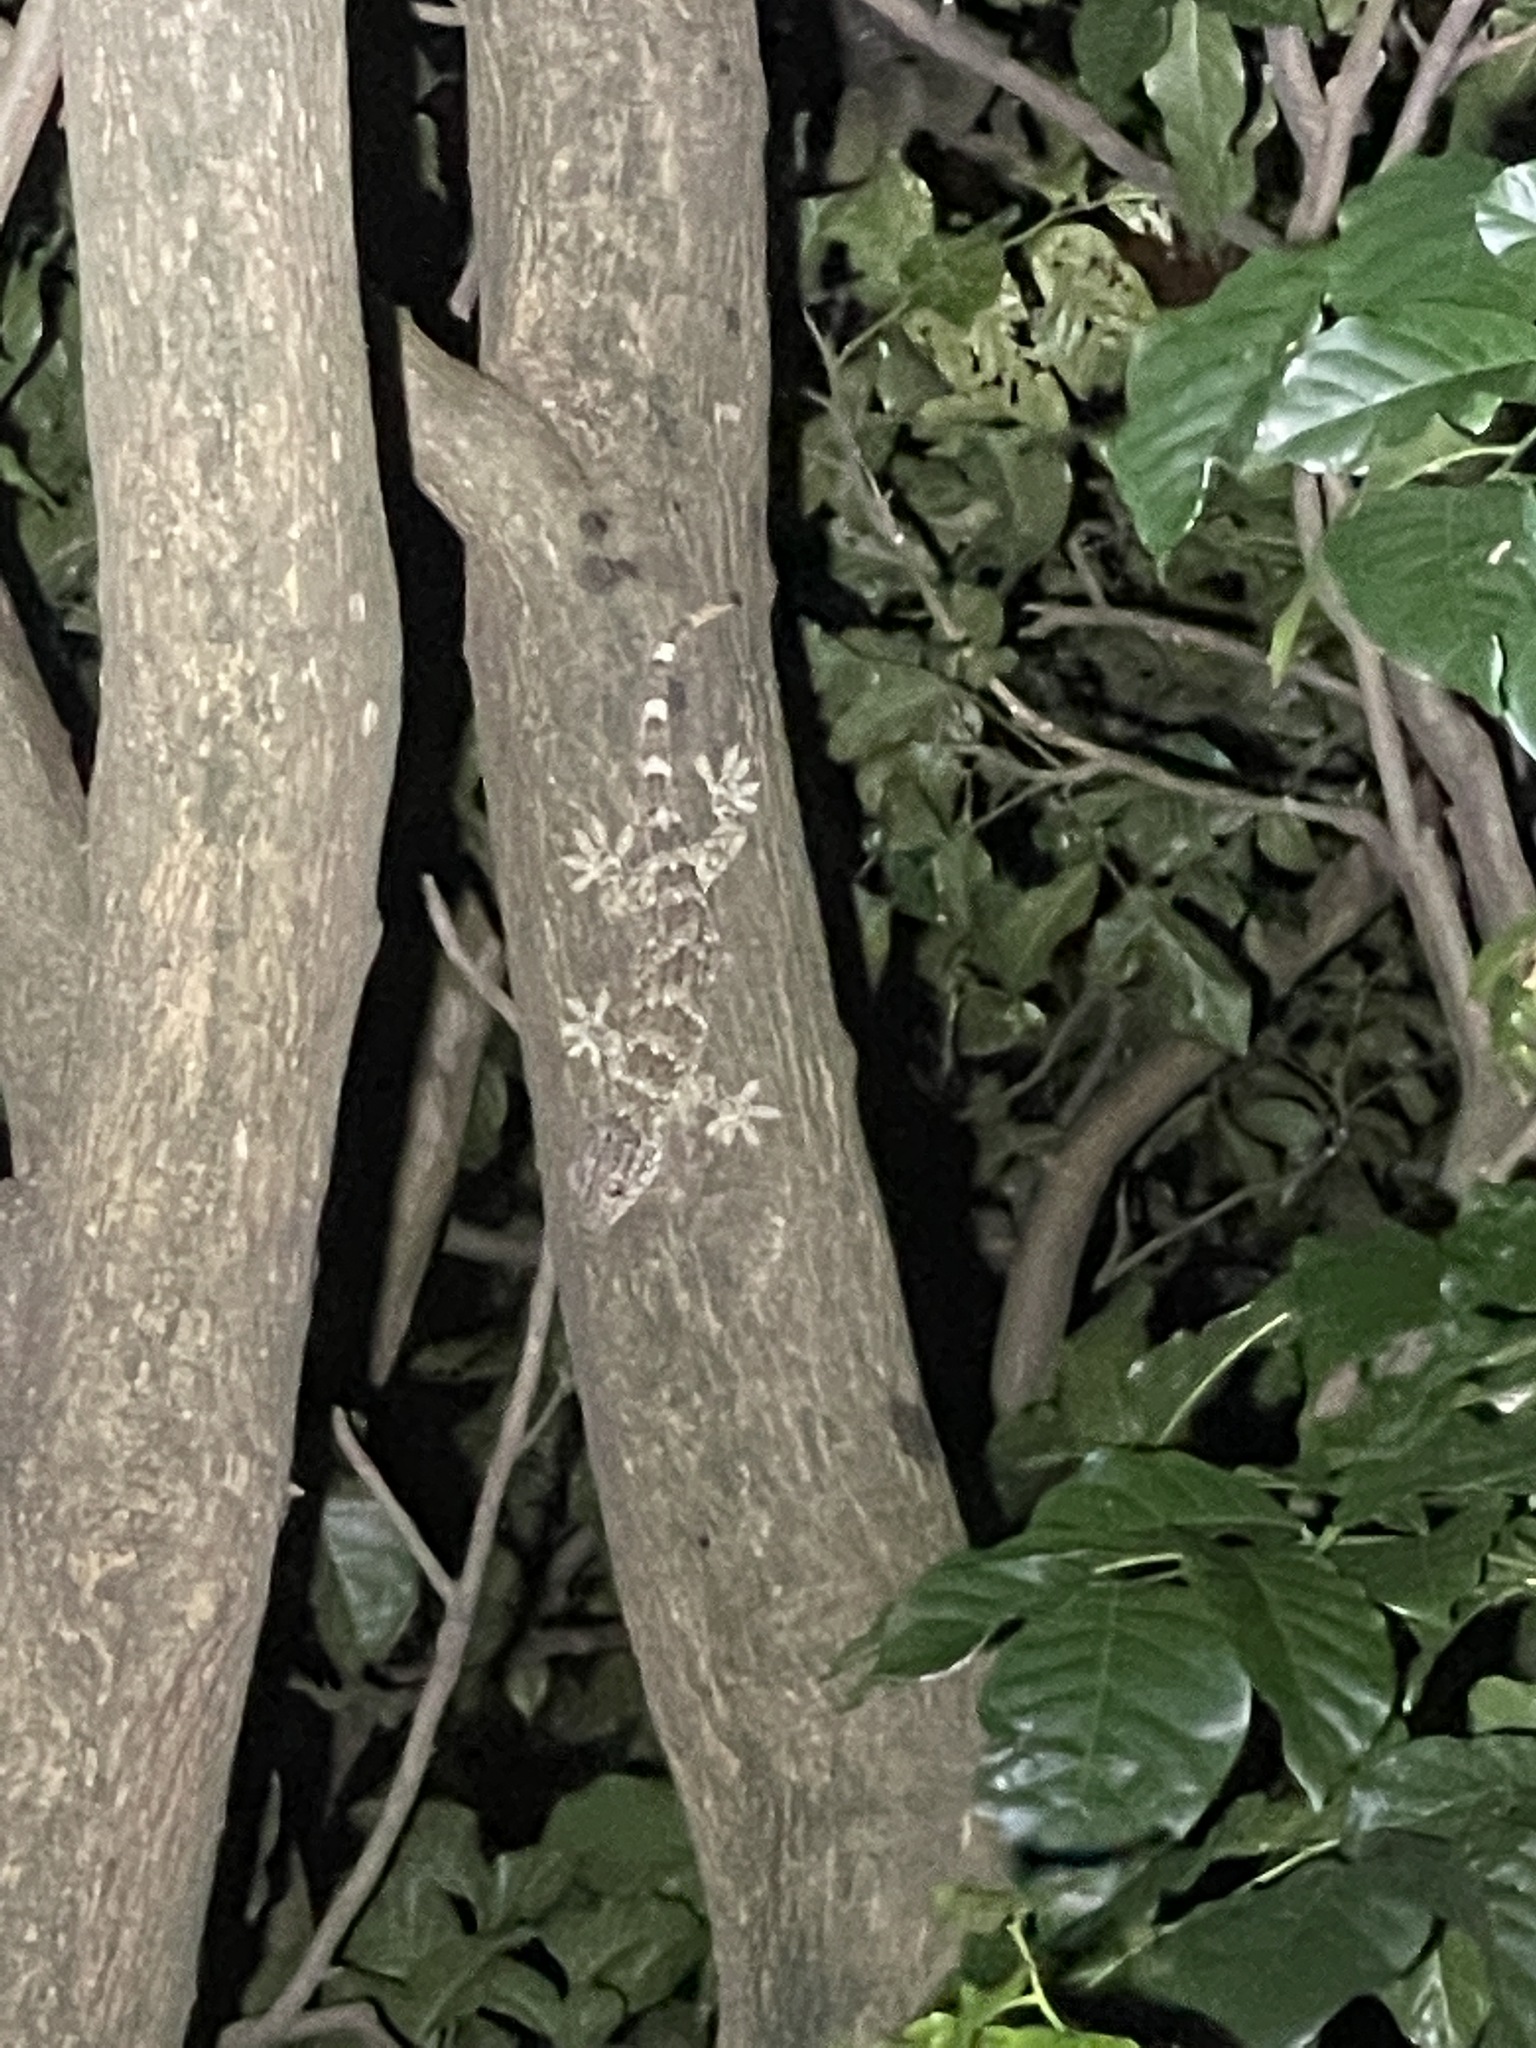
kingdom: Animalia
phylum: Chordata
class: Squamata
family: Gekkonidae
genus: Gekko
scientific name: Gekko reevesii
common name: Reeves’ tokay gecko
